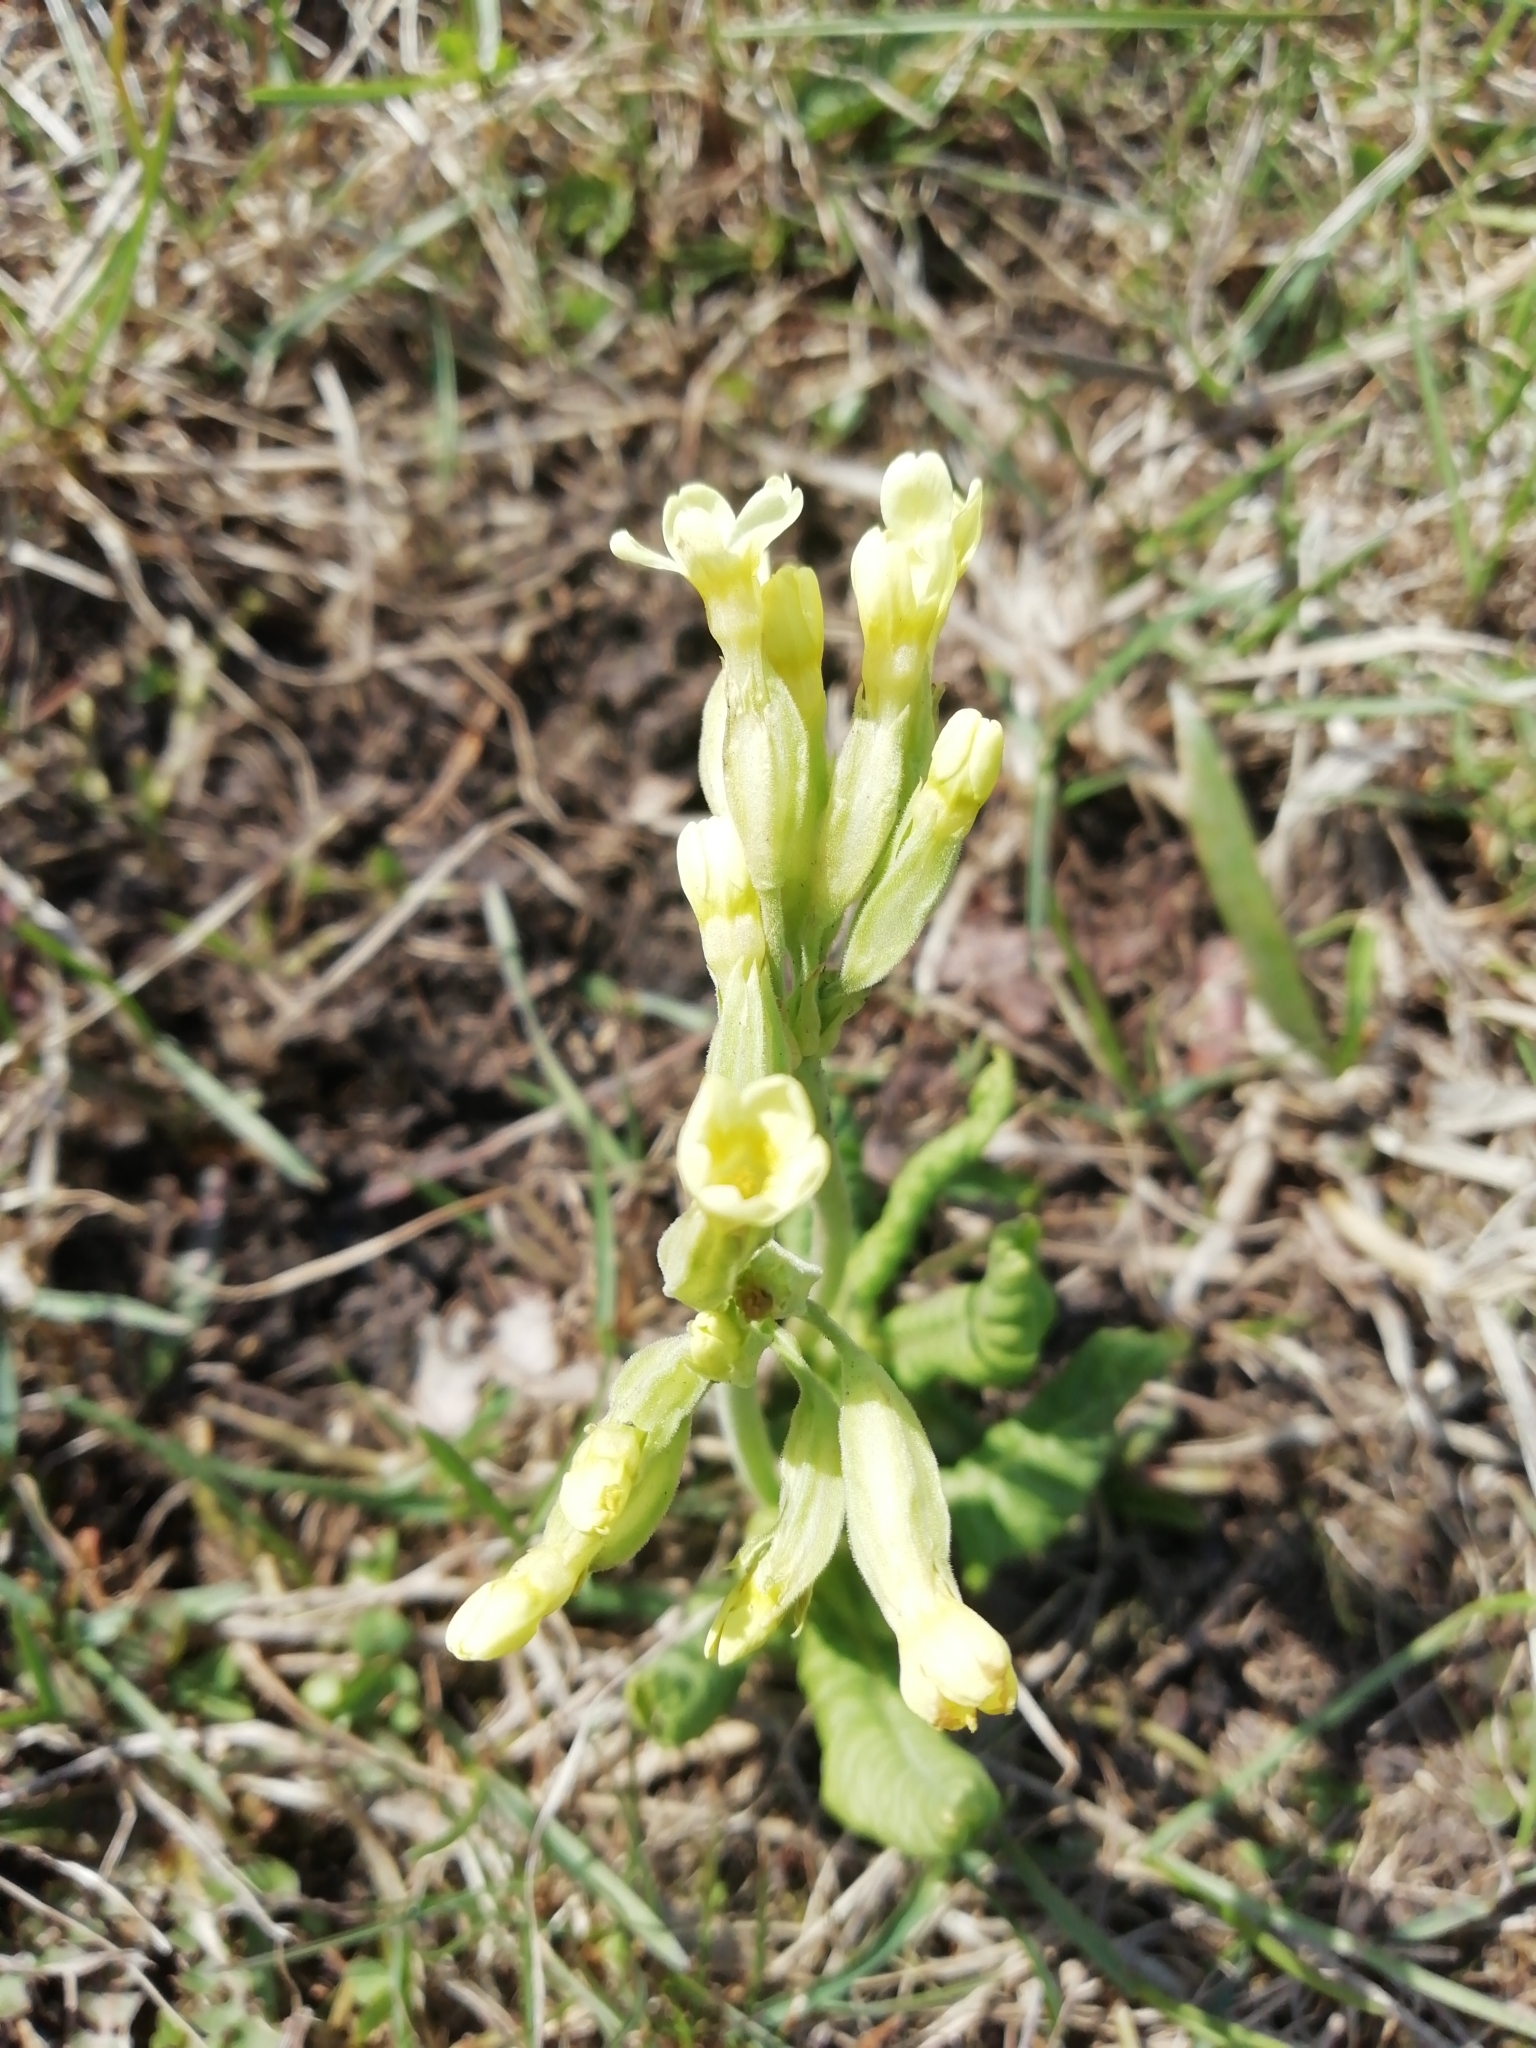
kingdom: Plantae
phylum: Tracheophyta
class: Magnoliopsida
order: Ericales
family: Primulaceae
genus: Primula
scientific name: Primula elatior
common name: Oxlip
